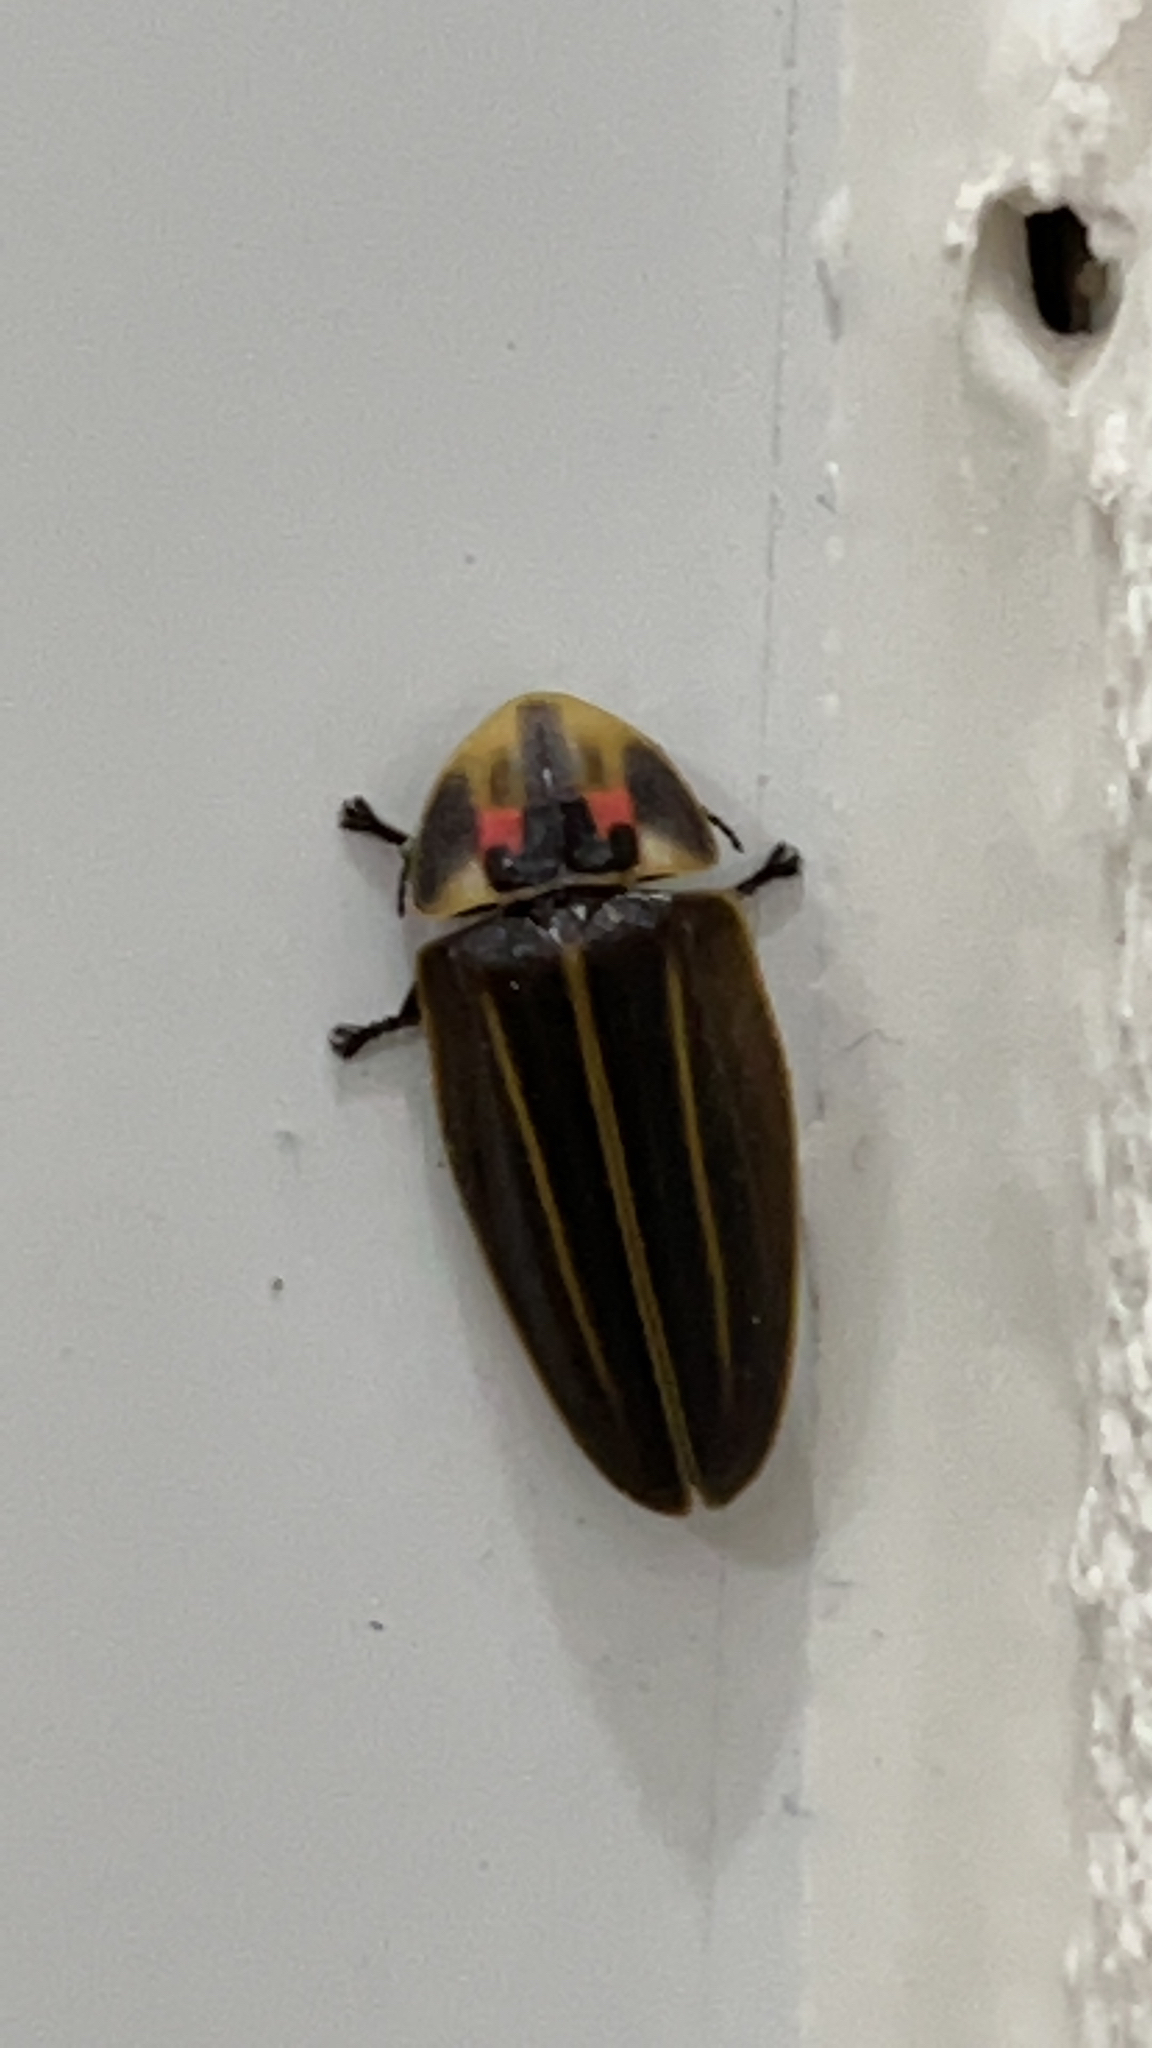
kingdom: Animalia
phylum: Arthropoda
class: Insecta
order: Coleoptera
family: Lampyridae
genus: Aspisomoides
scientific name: Aspisomoides bilineatum
